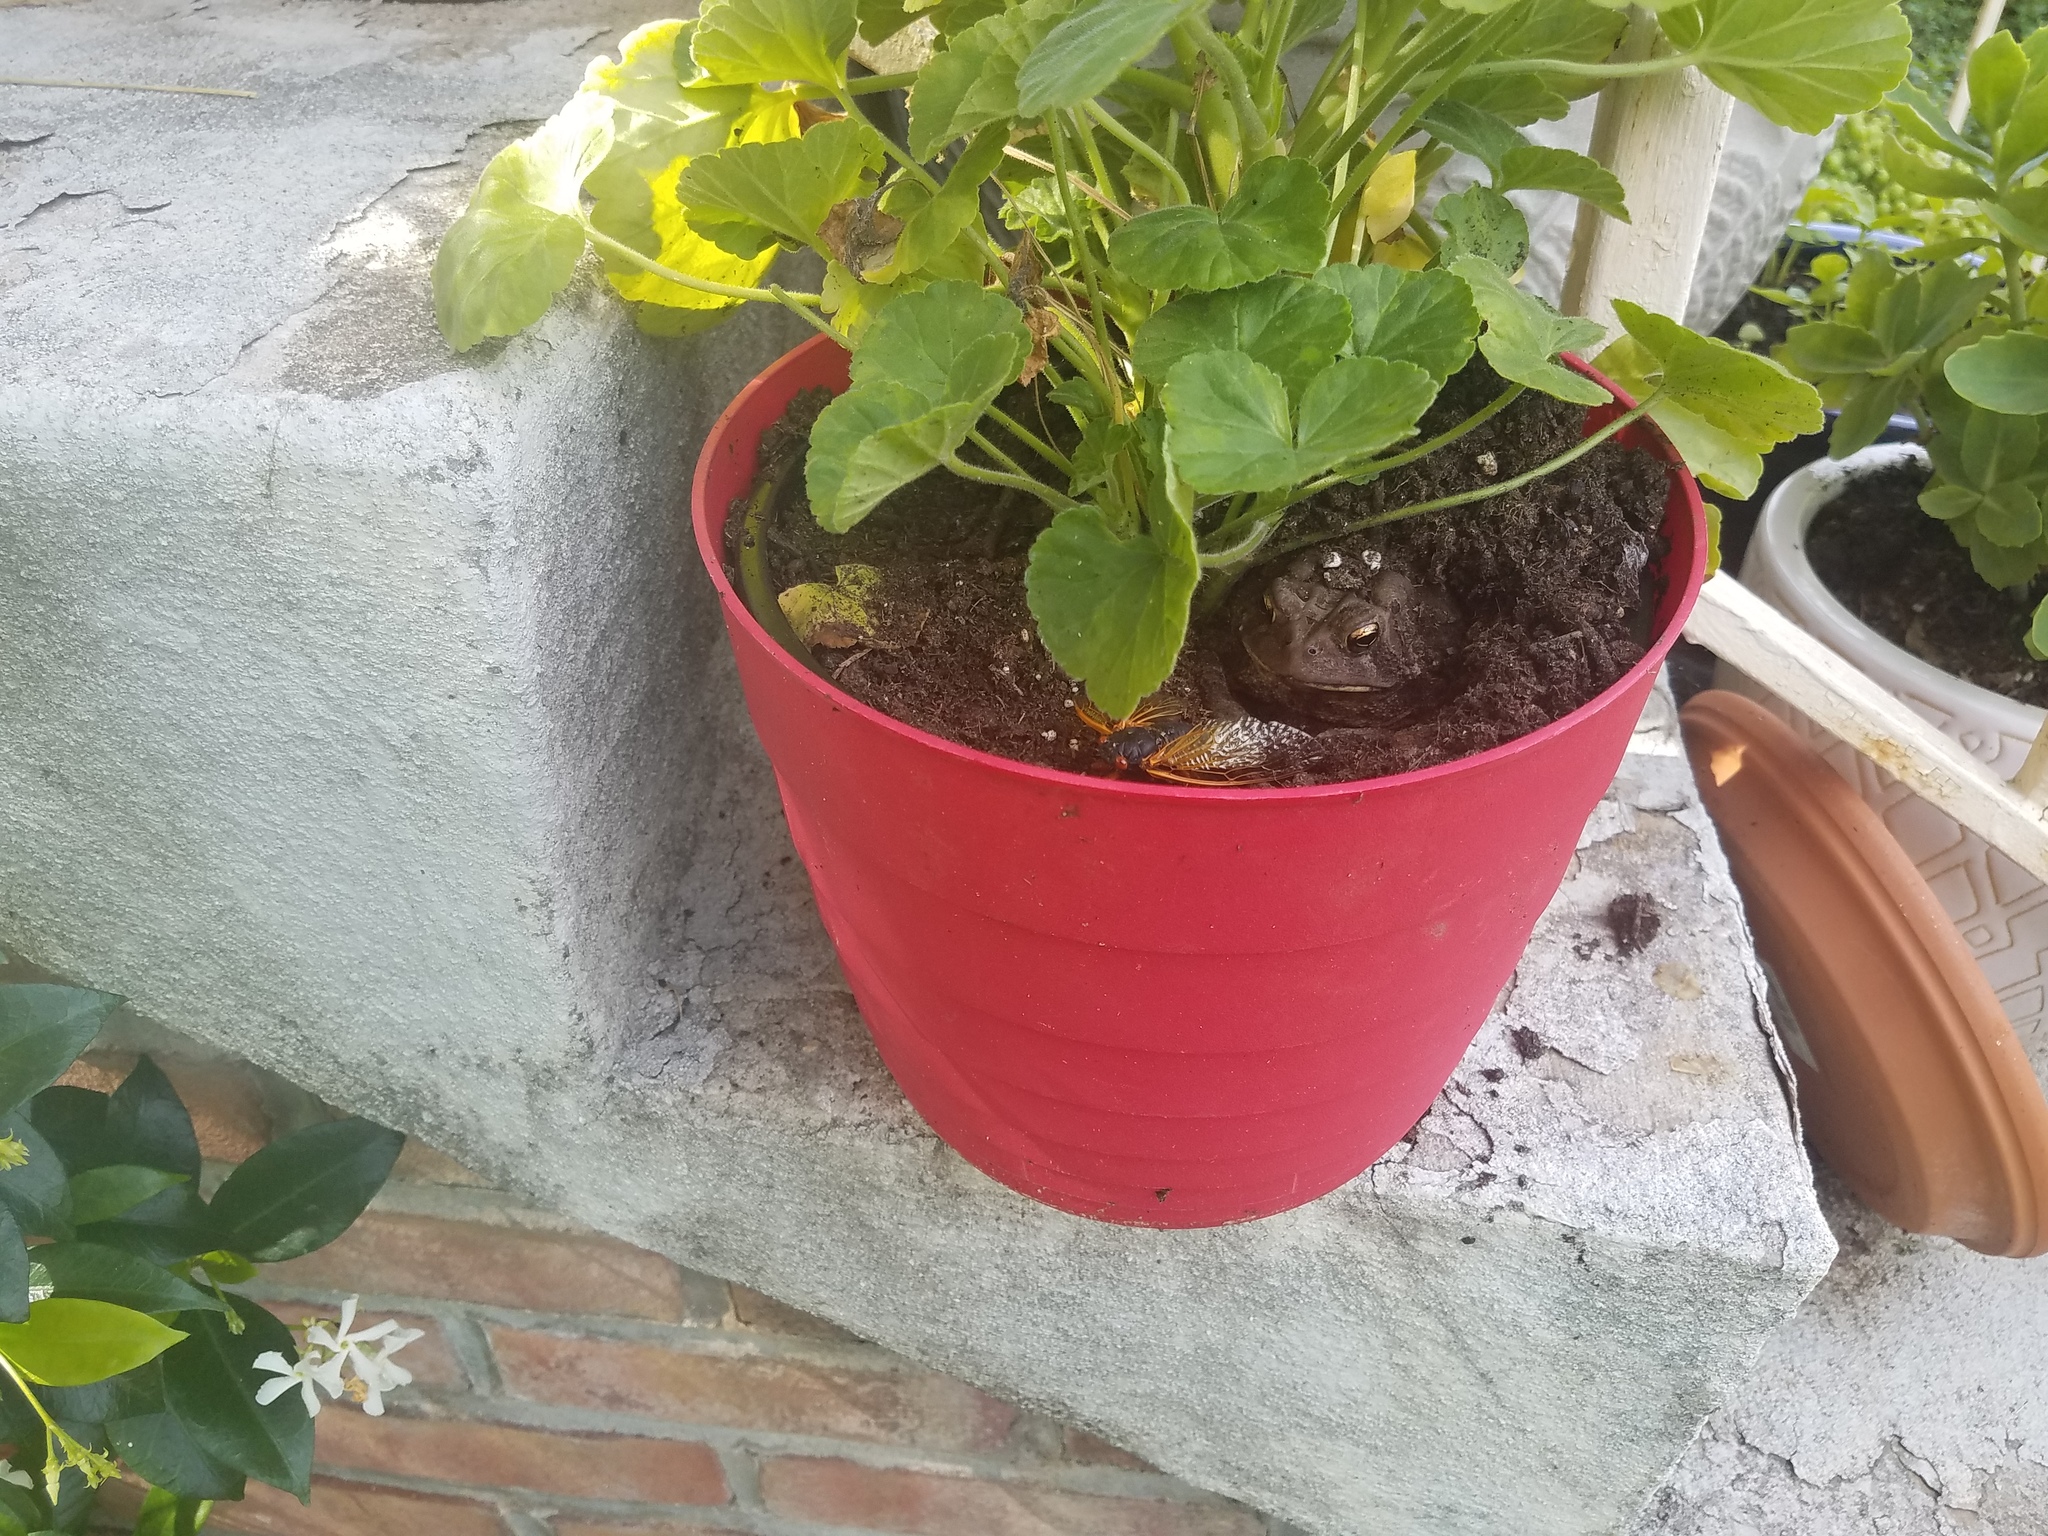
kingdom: Animalia
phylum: Chordata
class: Amphibia
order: Anura
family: Bufonidae
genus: Anaxyrus
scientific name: Anaxyrus americanus
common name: American toad
